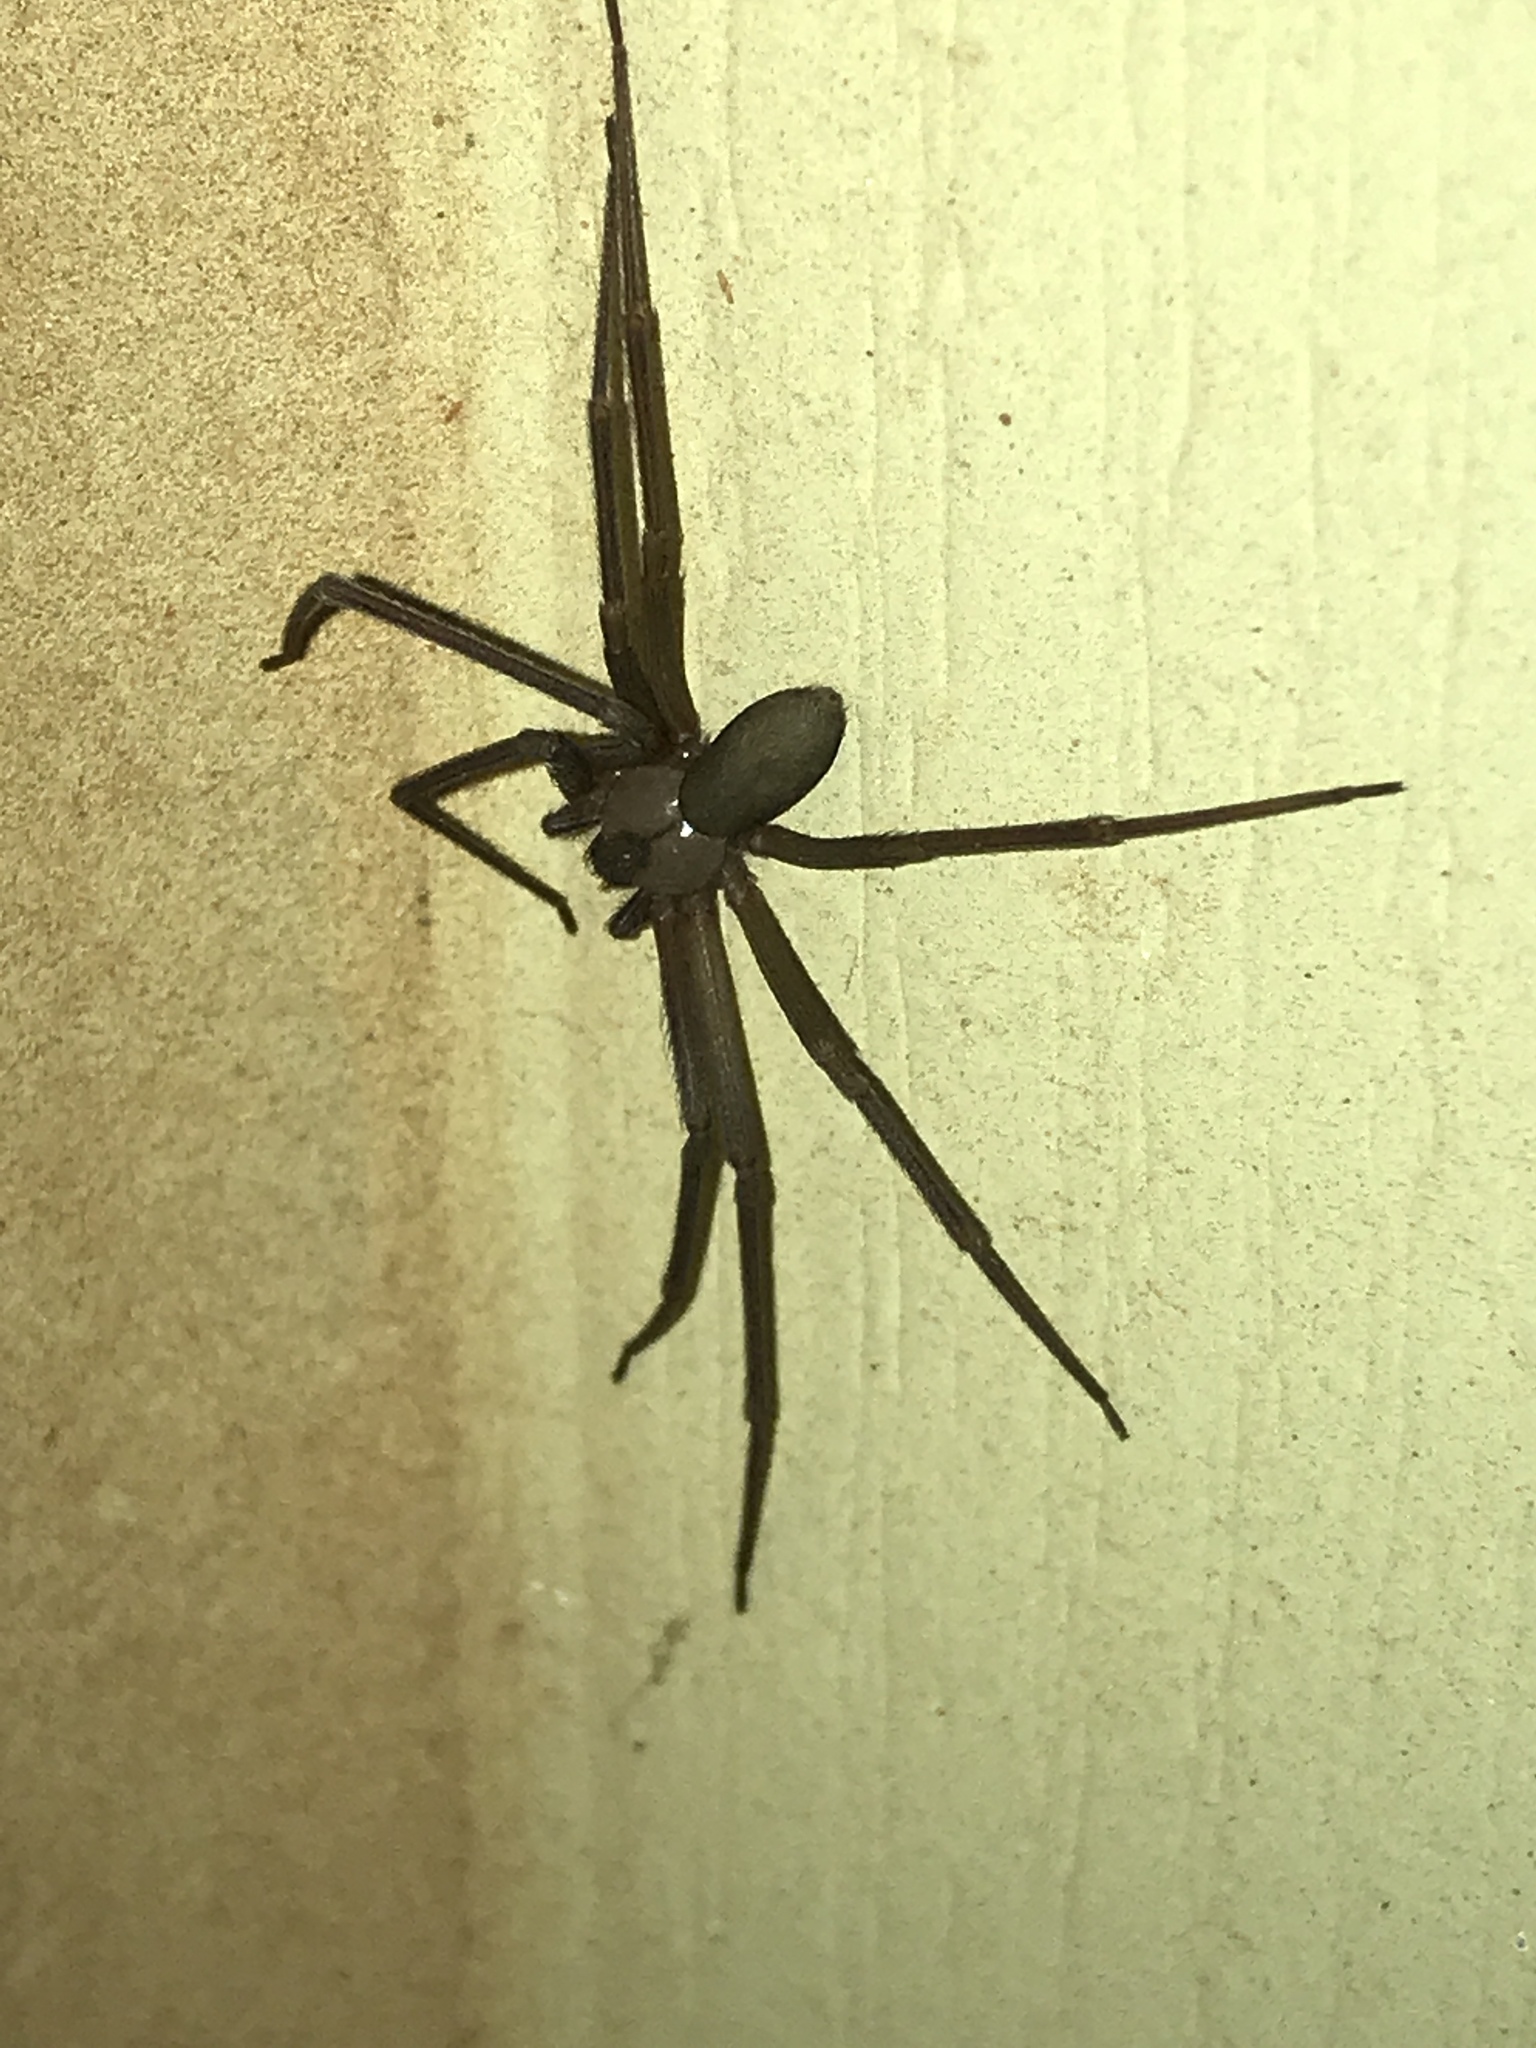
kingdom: Animalia
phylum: Arthropoda
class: Arachnida
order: Araneae
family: Sicariidae
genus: Loxosceles
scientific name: Loxosceles reclusa
